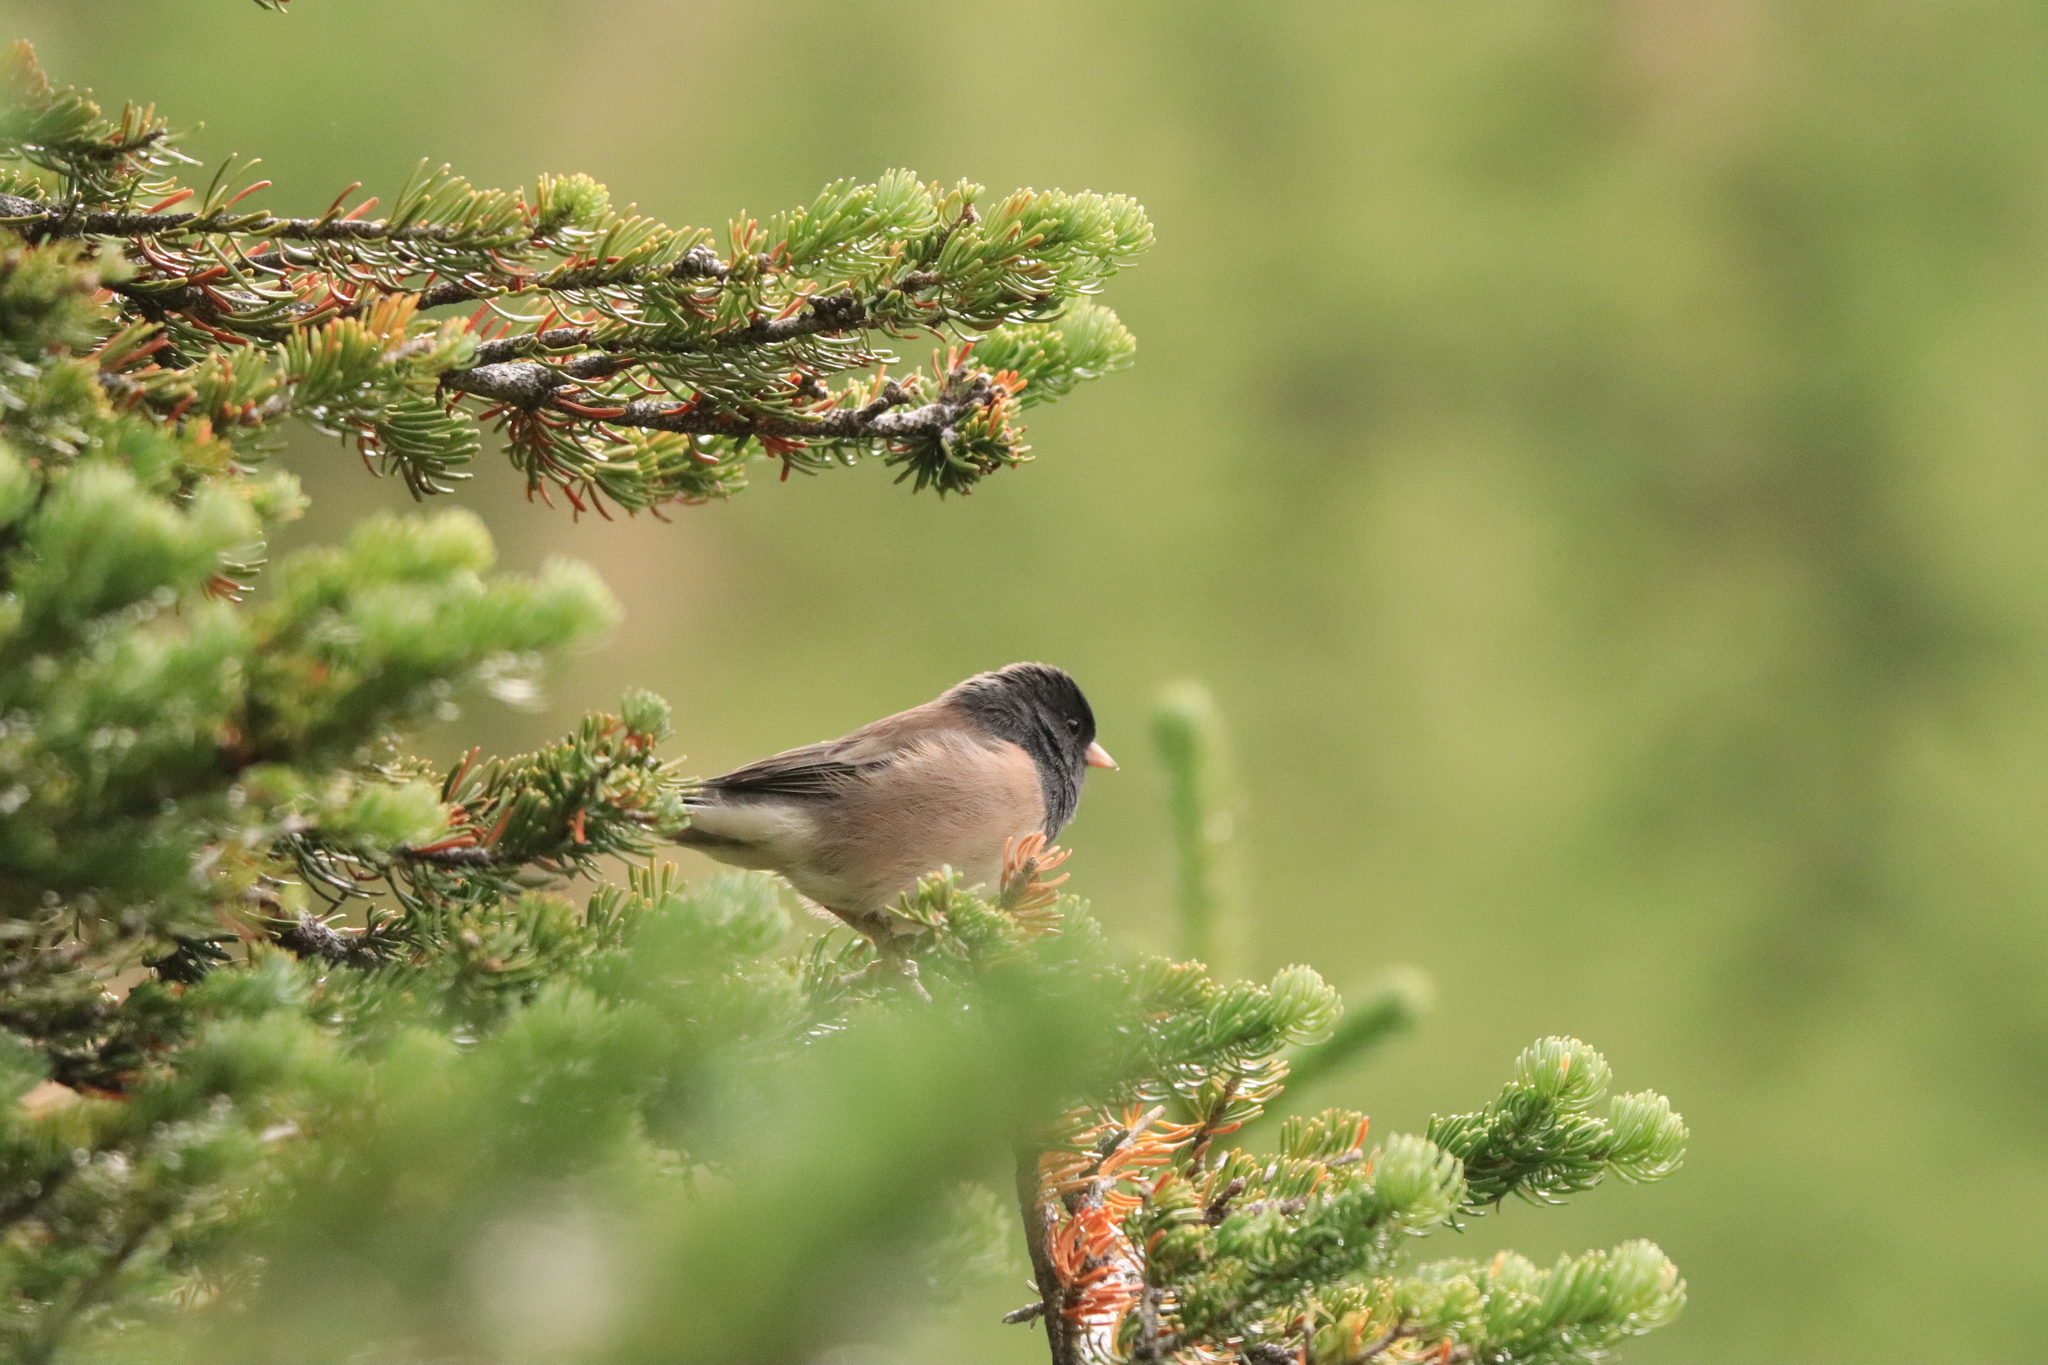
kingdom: Animalia
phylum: Chordata
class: Aves
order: Passeriformes
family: Passerellidae
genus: Junco
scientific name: Junco hyemalis
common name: Dark-eyed junco
